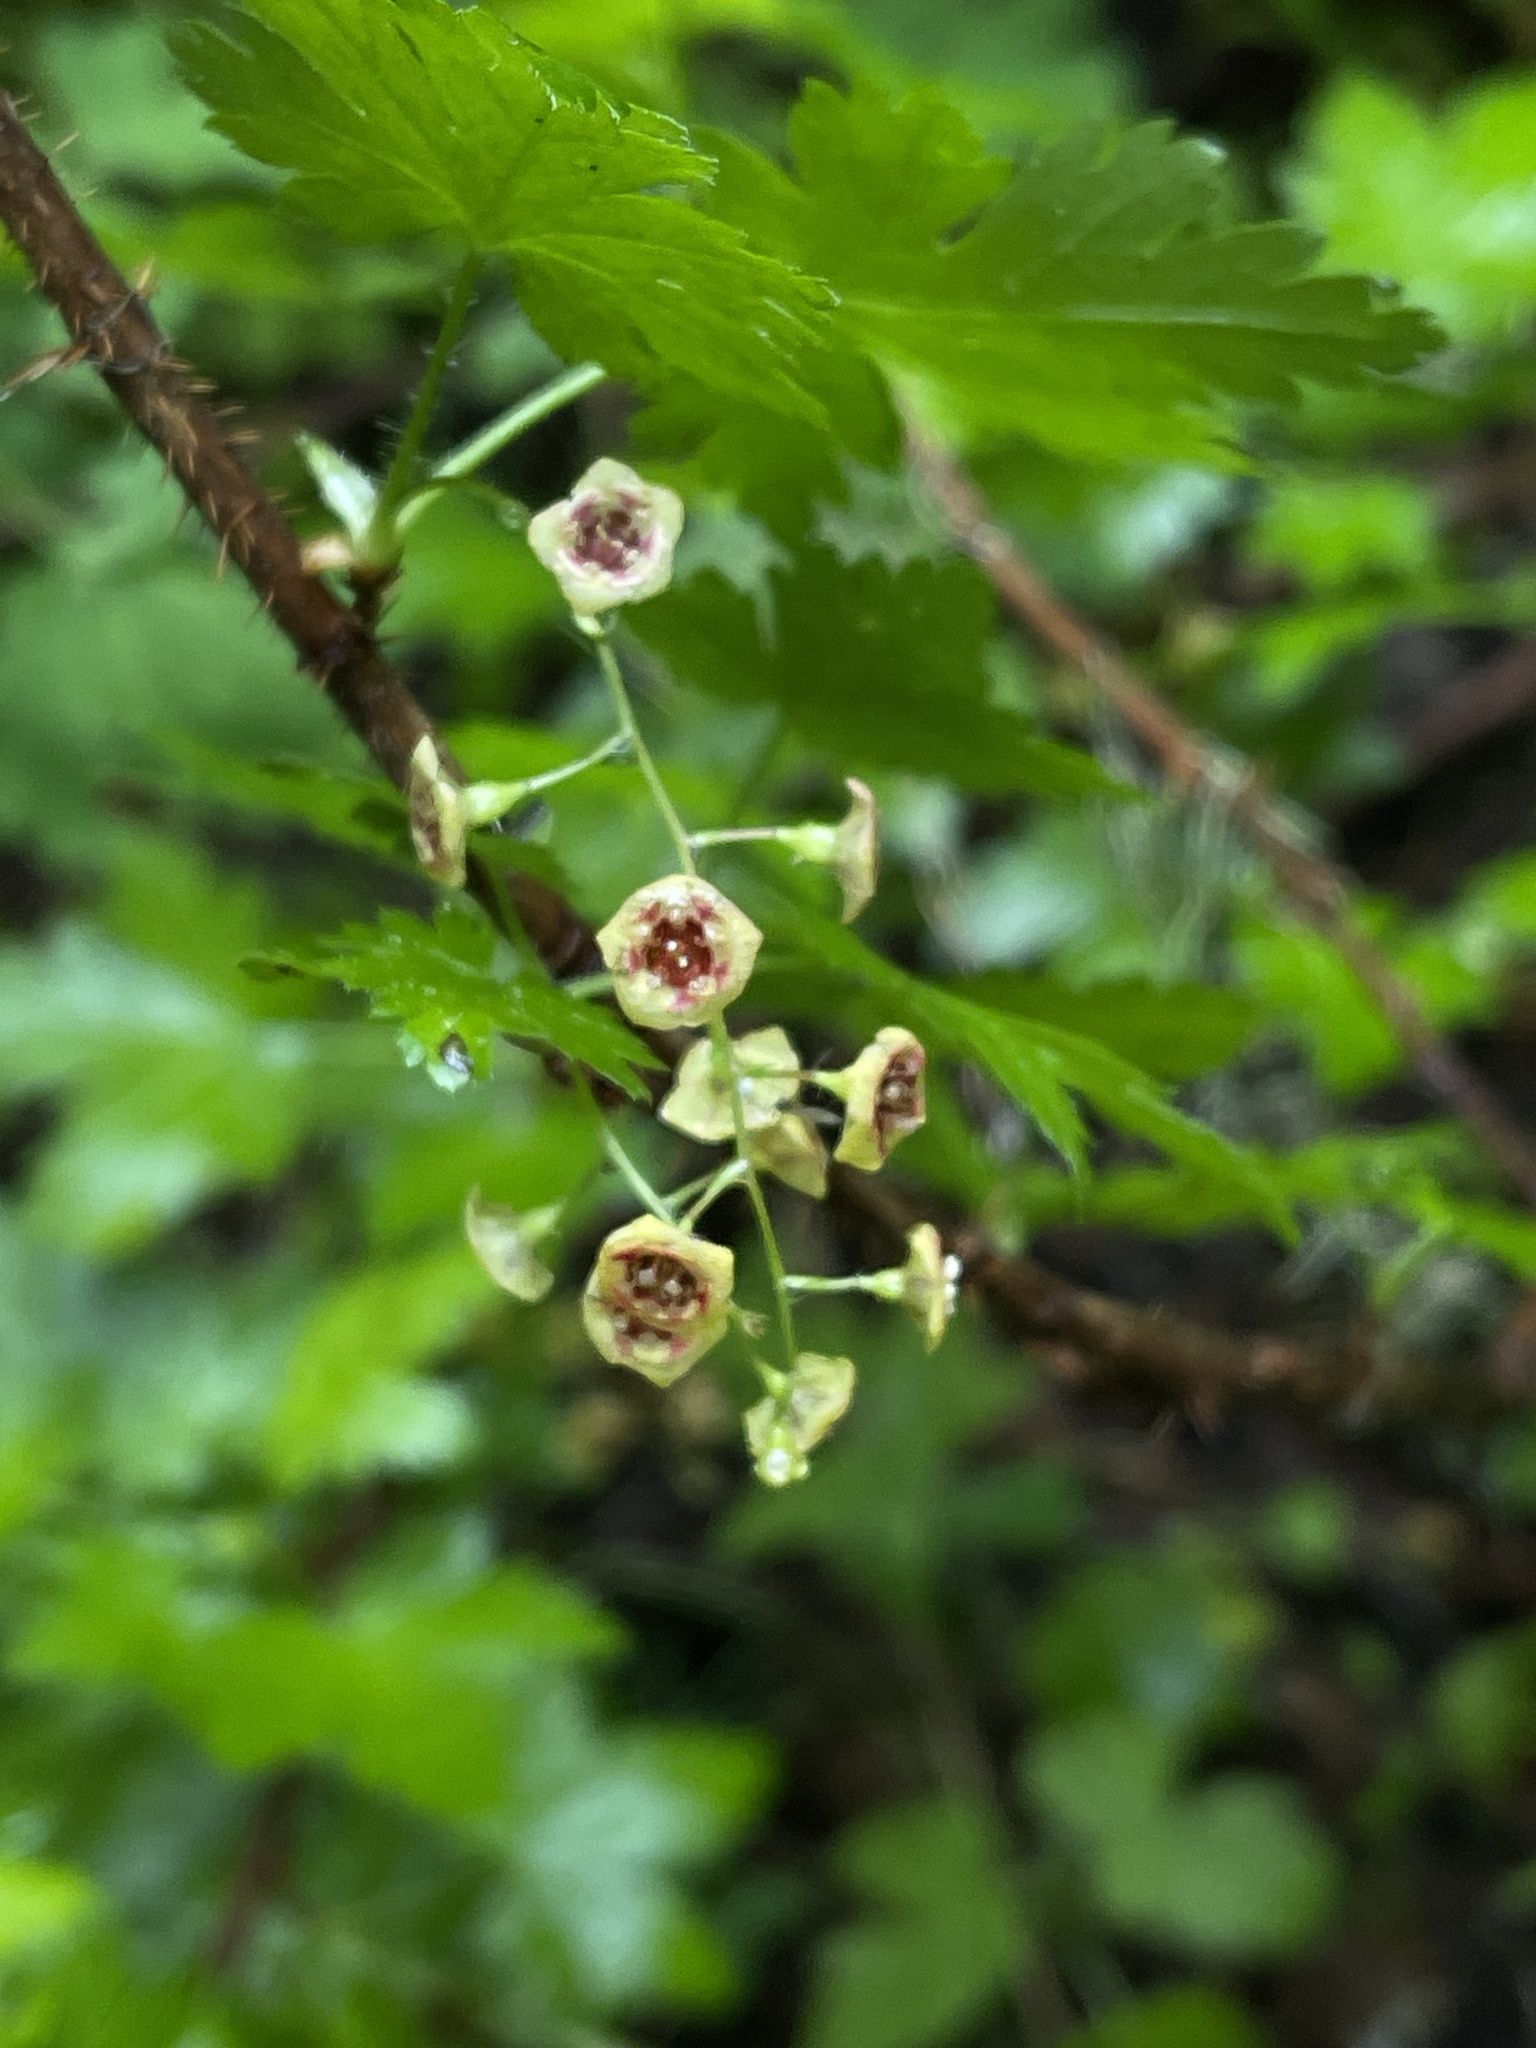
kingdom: Plantae
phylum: Tracheophyta
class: Magnoliopsida
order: Saxifragales
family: Grossulariaceae
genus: Ribes
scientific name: Ribes lacustre
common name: Black gooseberry
